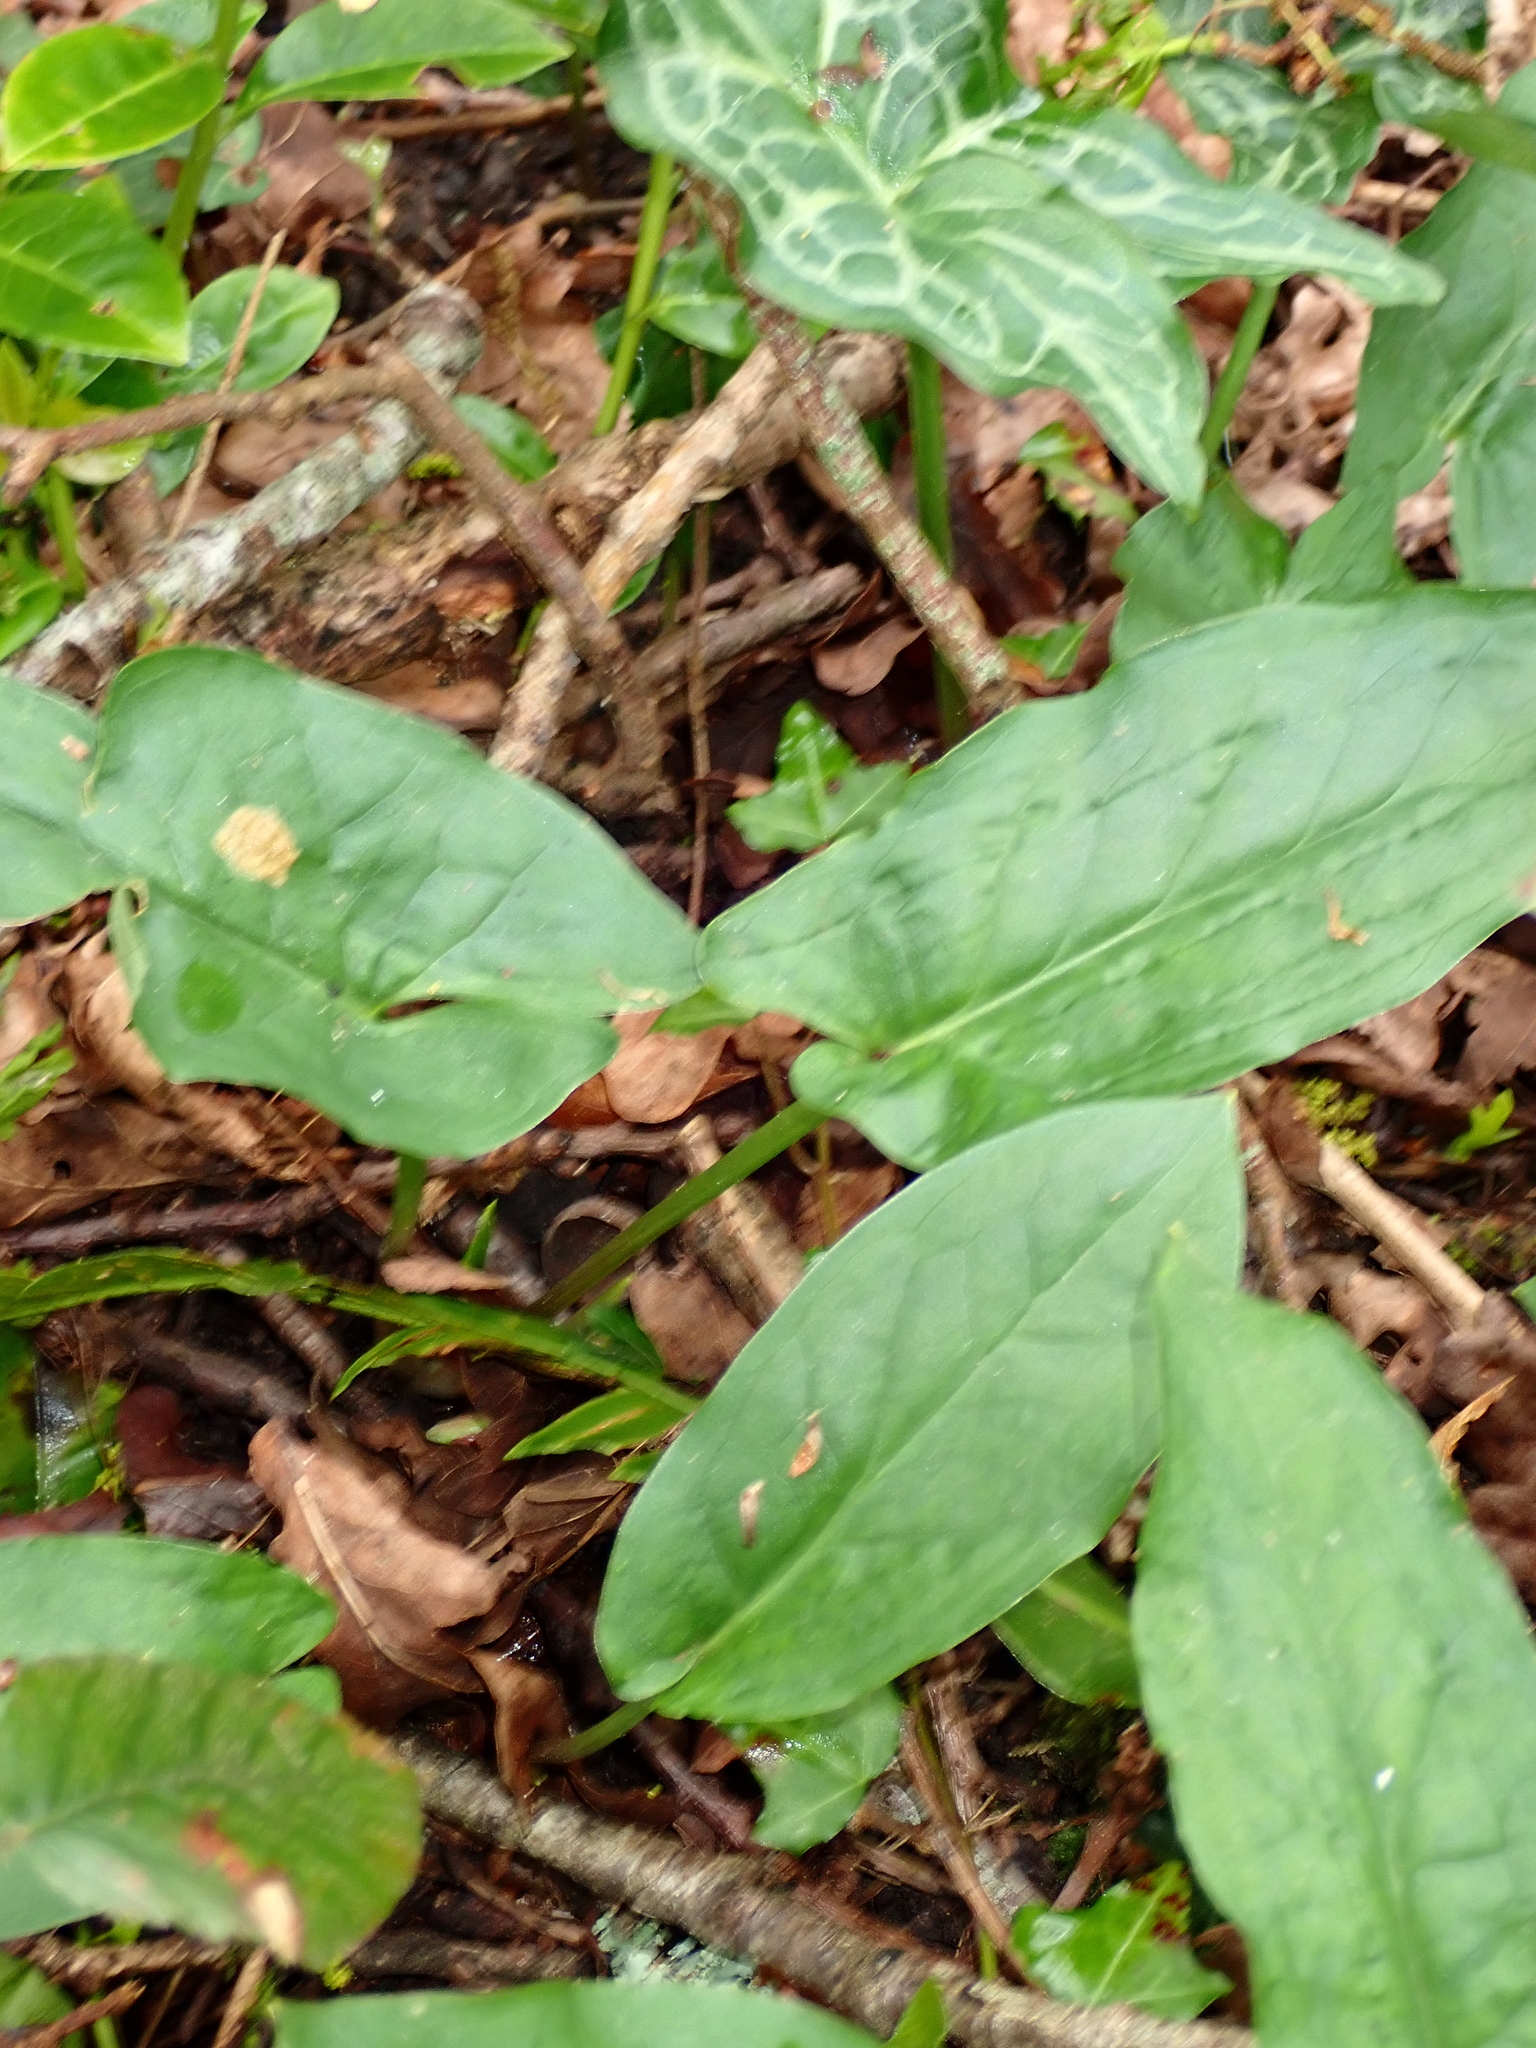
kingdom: Plantae
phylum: Tracheophyta
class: Liliopsida
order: Alismatales
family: Araceae
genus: Arum
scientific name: Arum maculatum
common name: Lords-and-ladies
